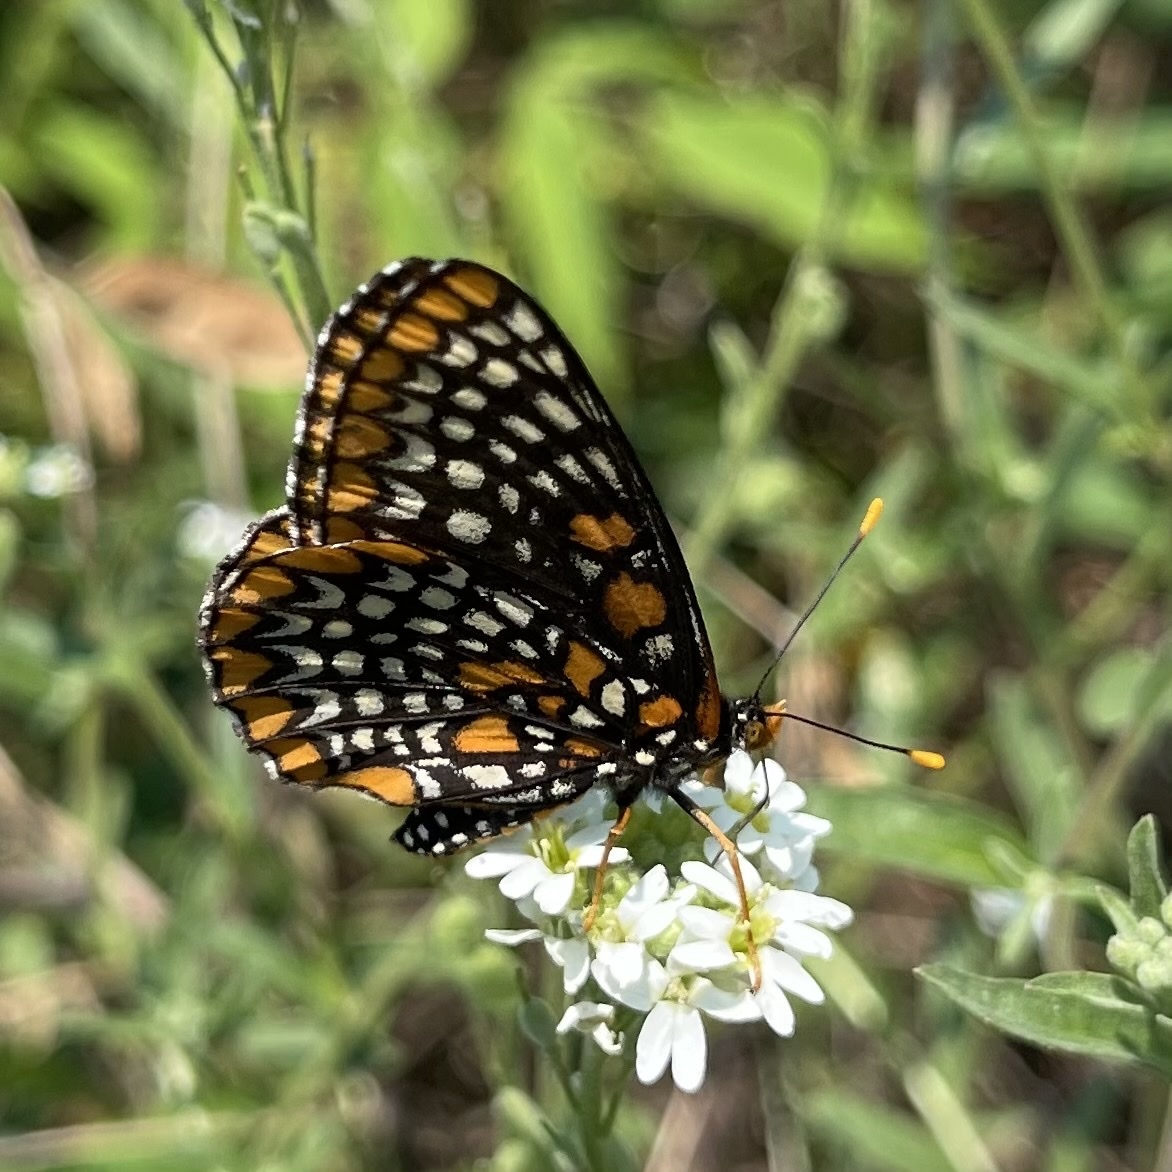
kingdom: Animalia
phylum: Arthropoda
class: Insecta
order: Lepidoptera
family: Nymphalidae
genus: Euphydryas
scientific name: Euphydryas phaeton
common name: Baltimore checkerspot
